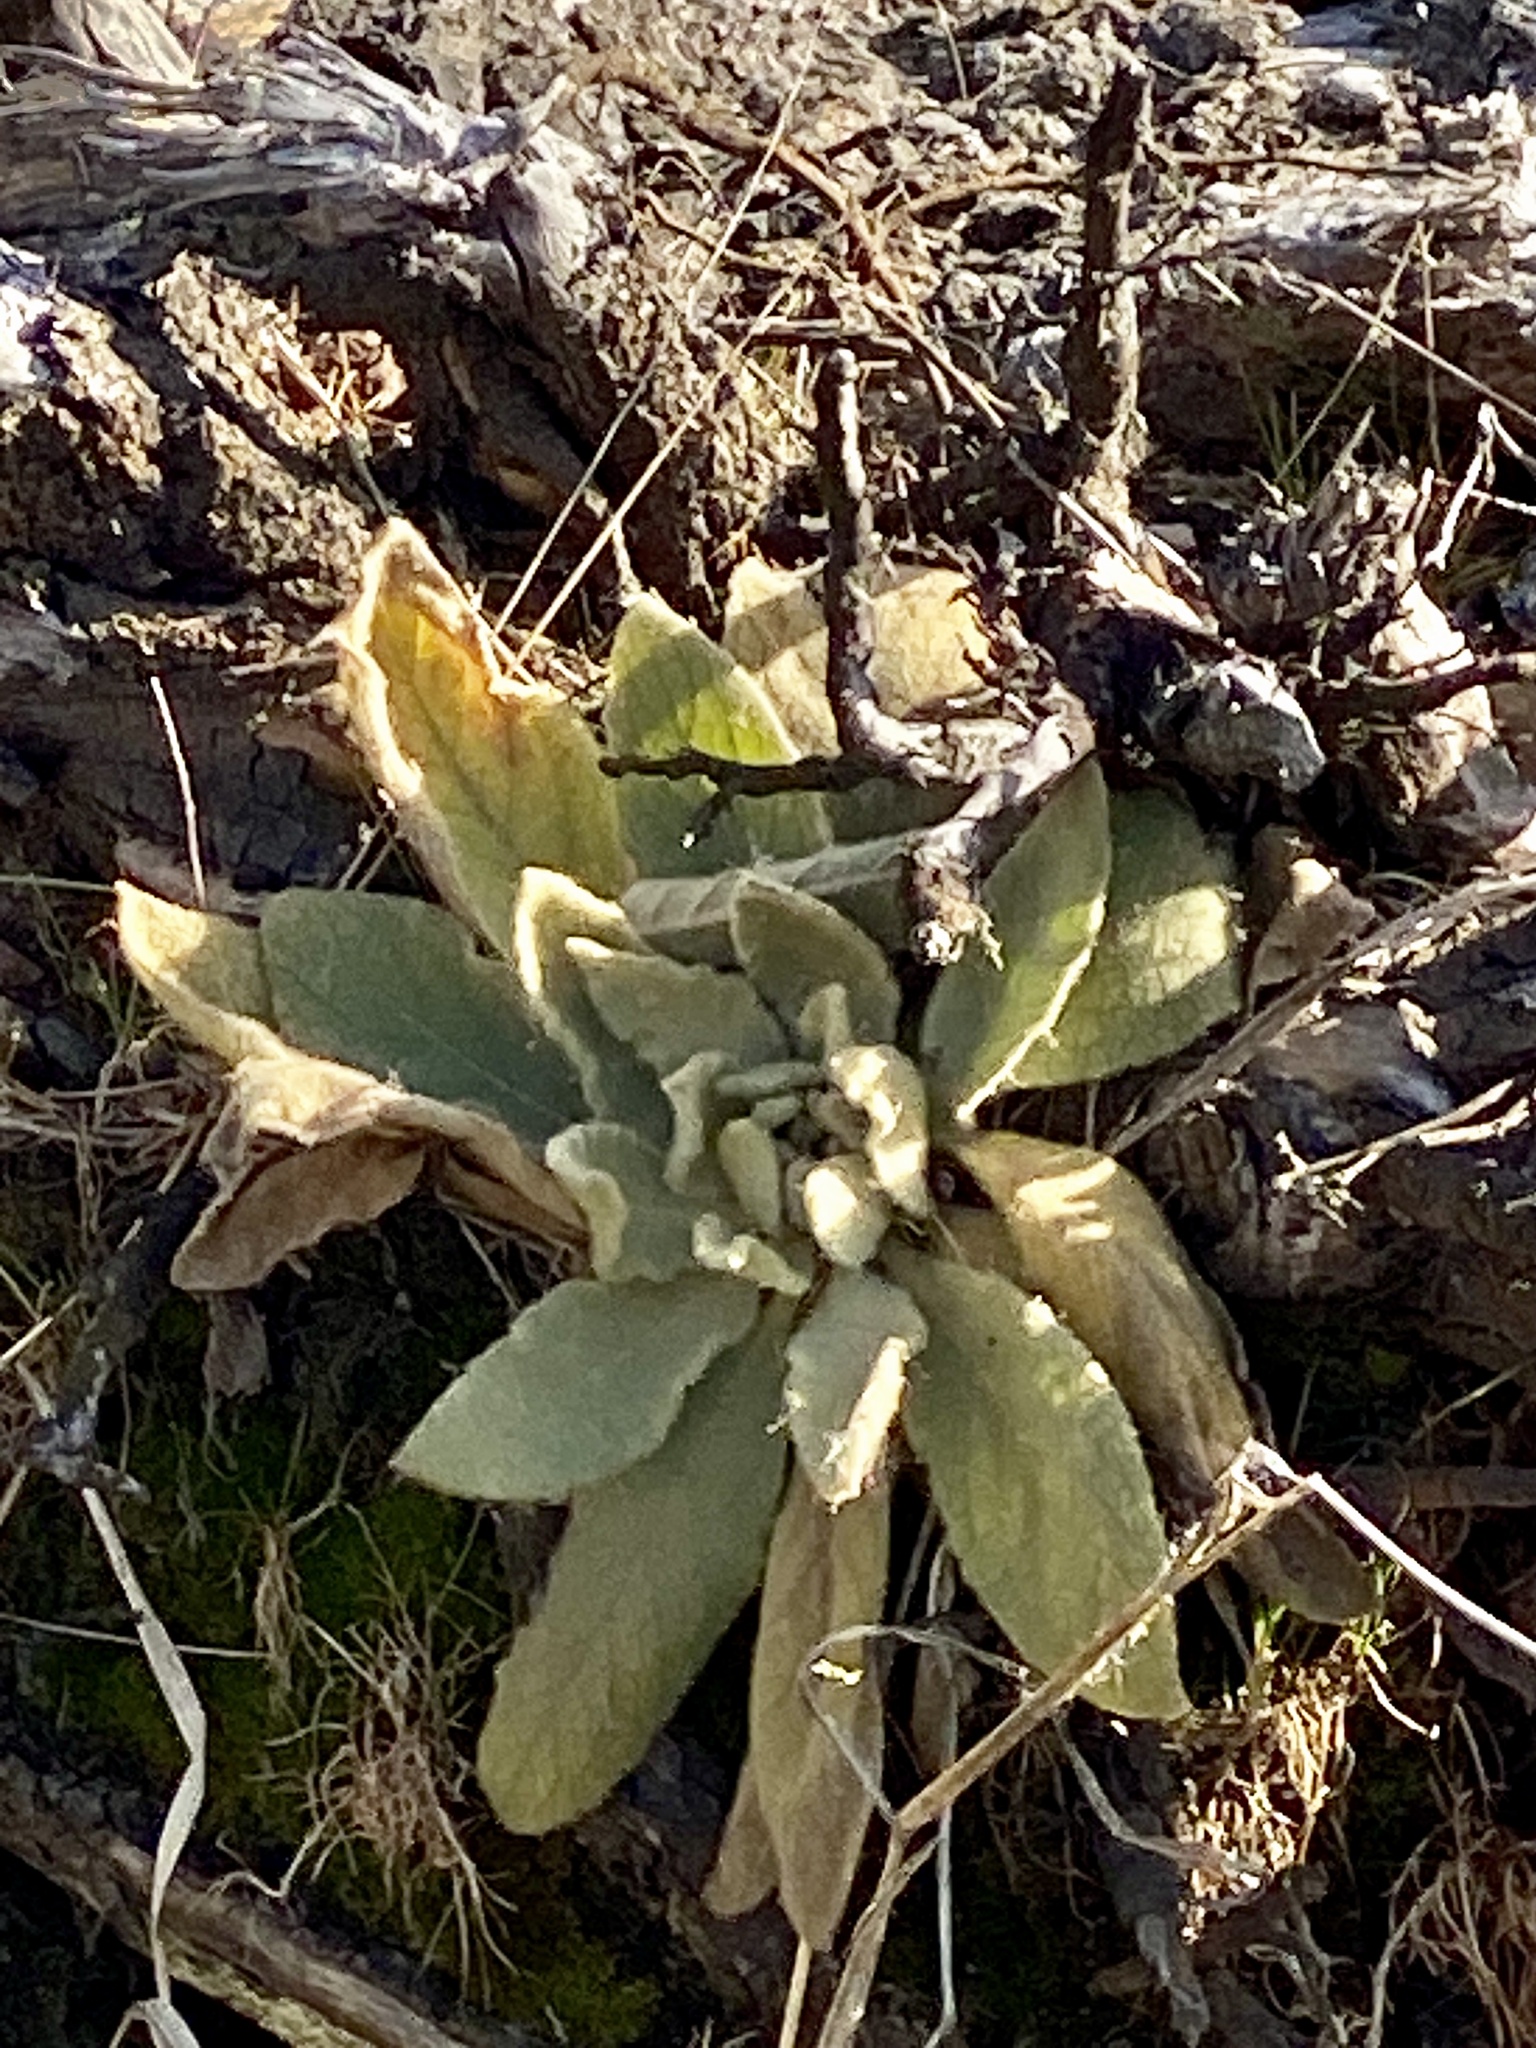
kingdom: Plantae
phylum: Tracheophyta
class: Magnoliopsida
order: Lamiales
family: Scrophulariaceae
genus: Verbascum
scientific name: Verbascum thapsus
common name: Common mullein
